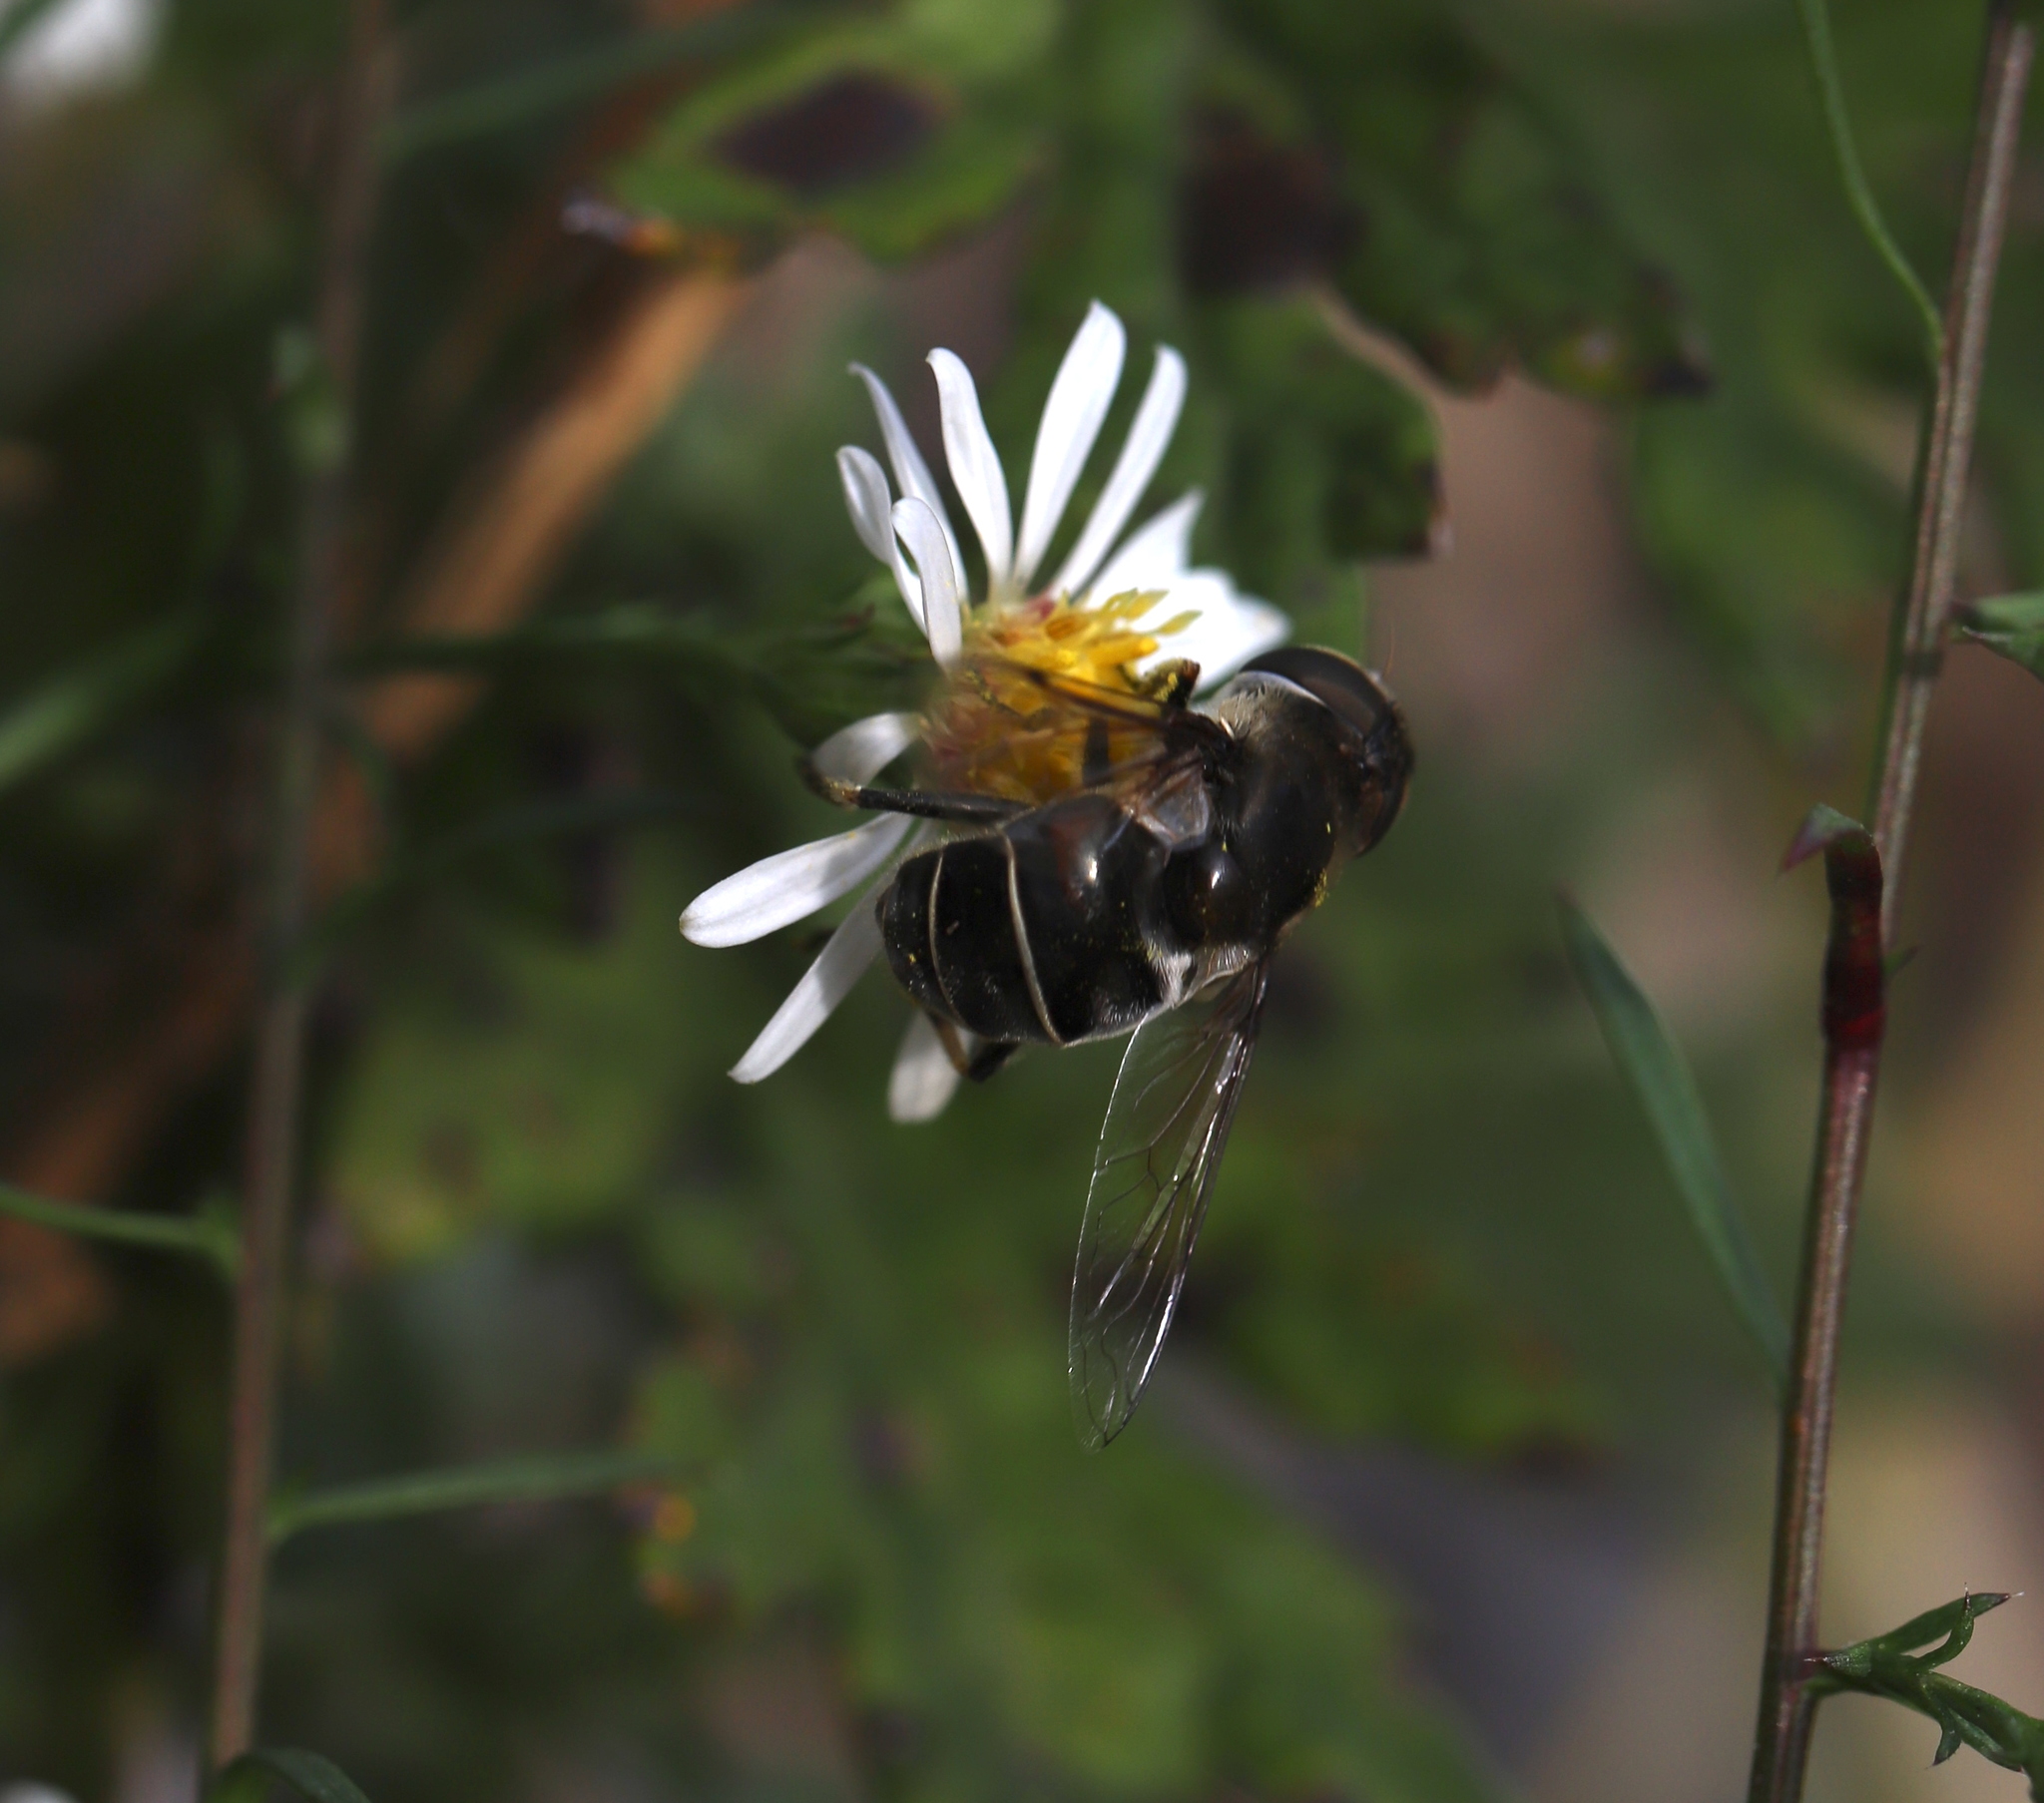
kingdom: Animalia
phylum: Arthropoda
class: Insecta
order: Diptera
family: Syrphidae
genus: Eristalis
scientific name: Eristalis dimidiata
